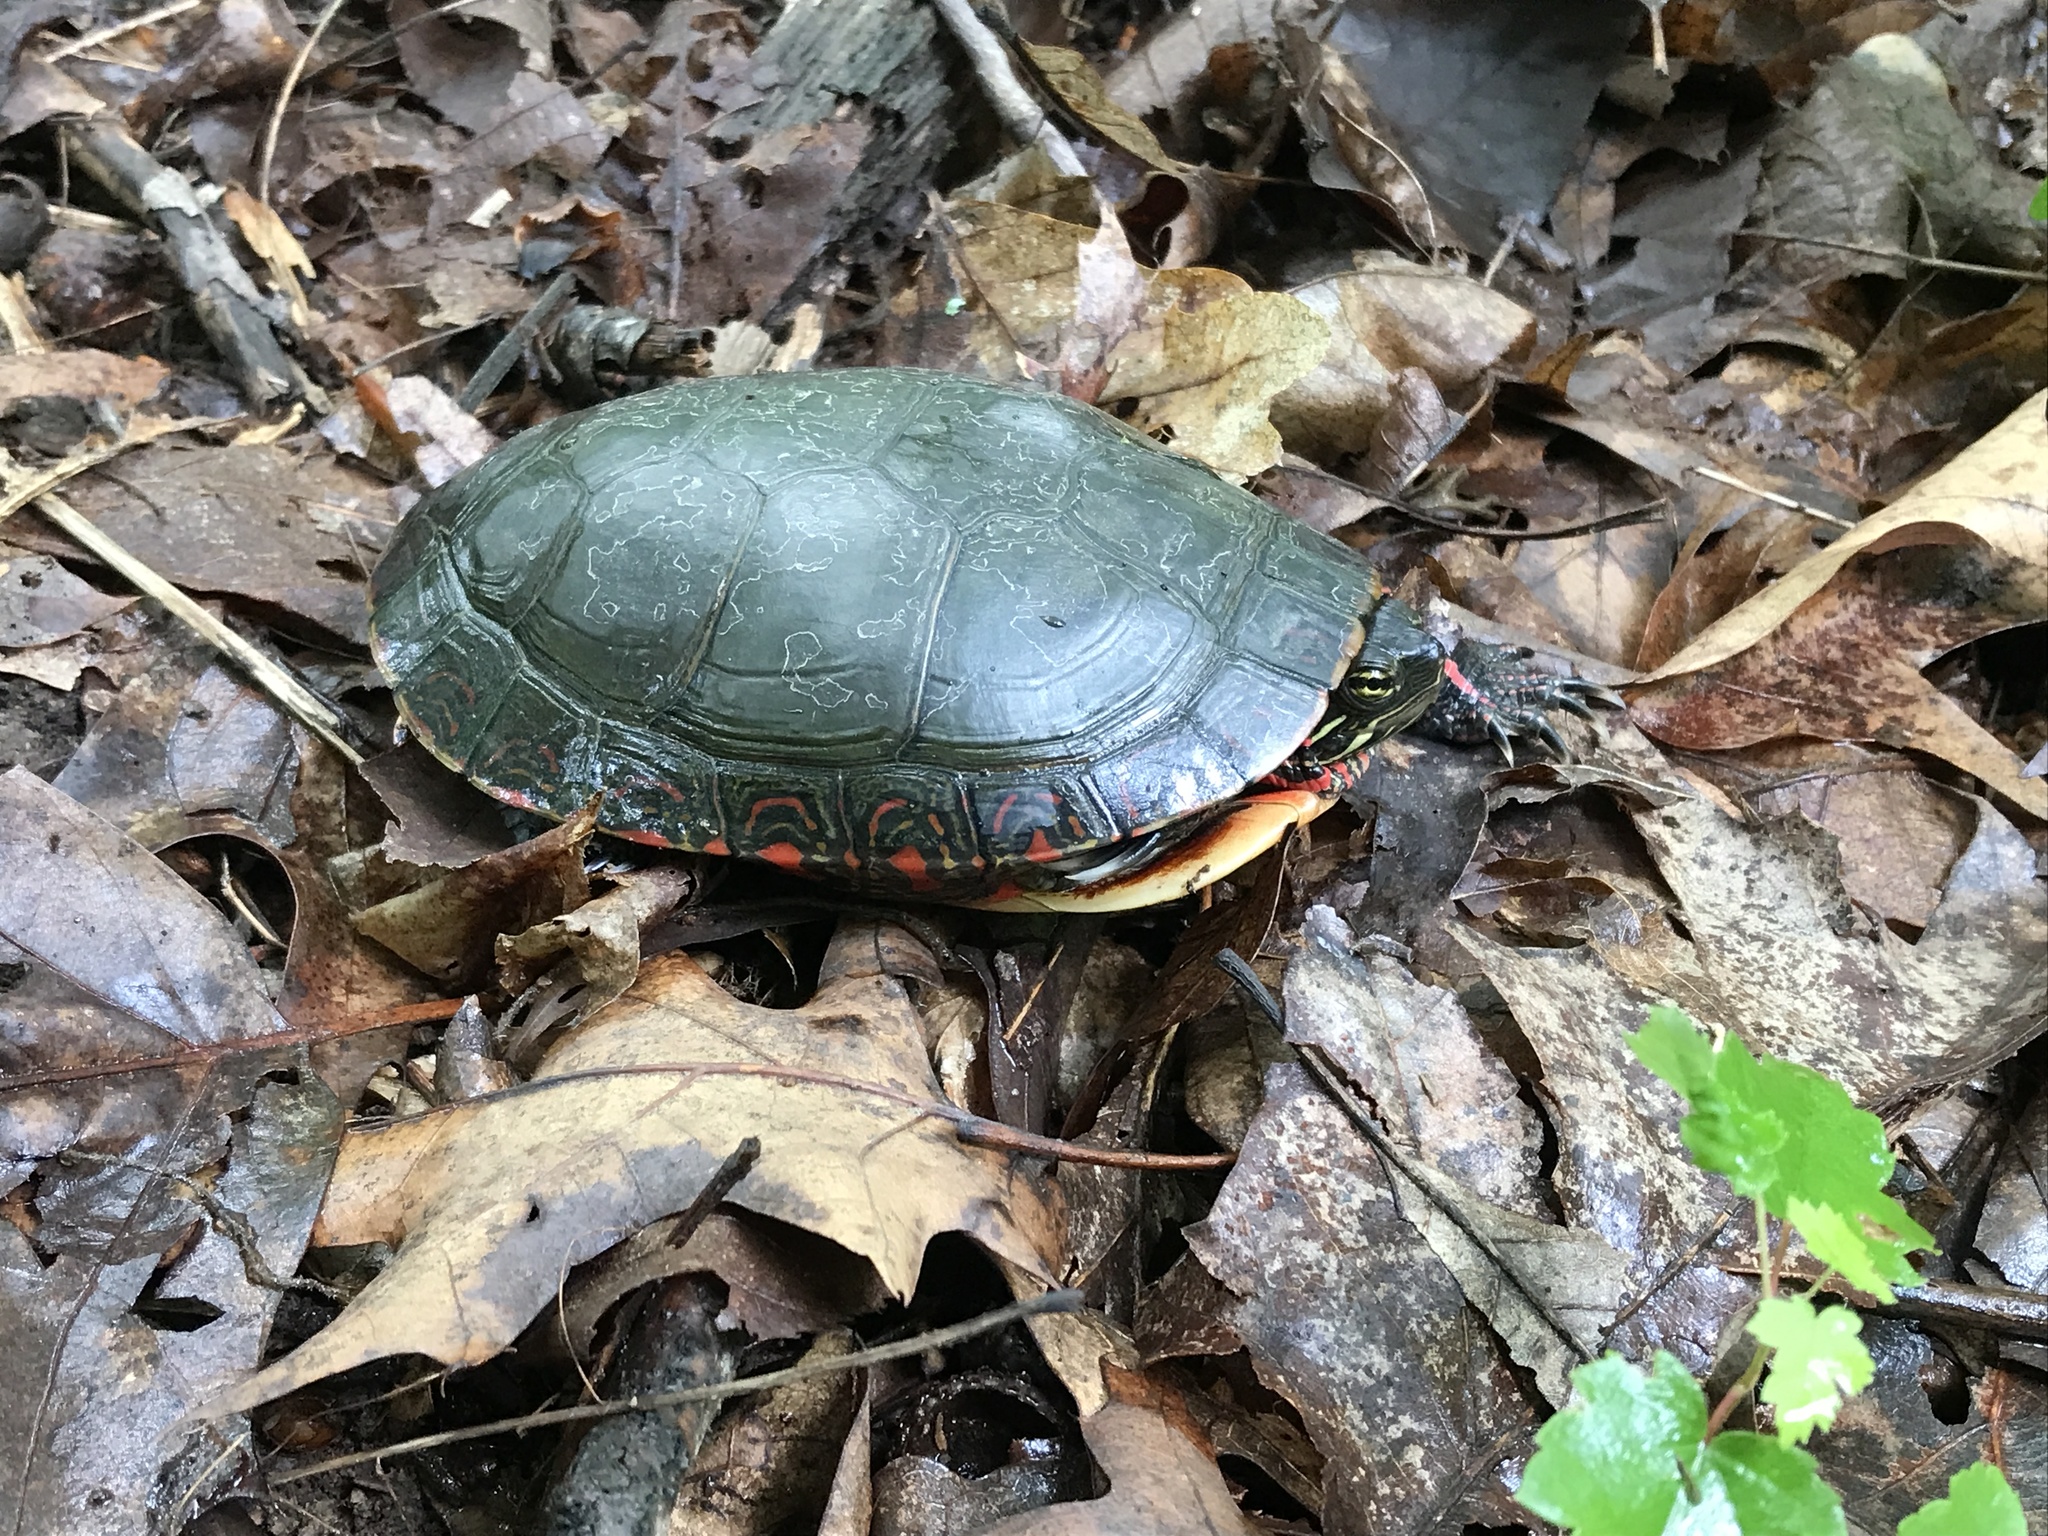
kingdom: Animalia
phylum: Chordata
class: Testudines
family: Emydidae
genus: Chrysemys
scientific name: Chrysemys picta
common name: Painted turtle
